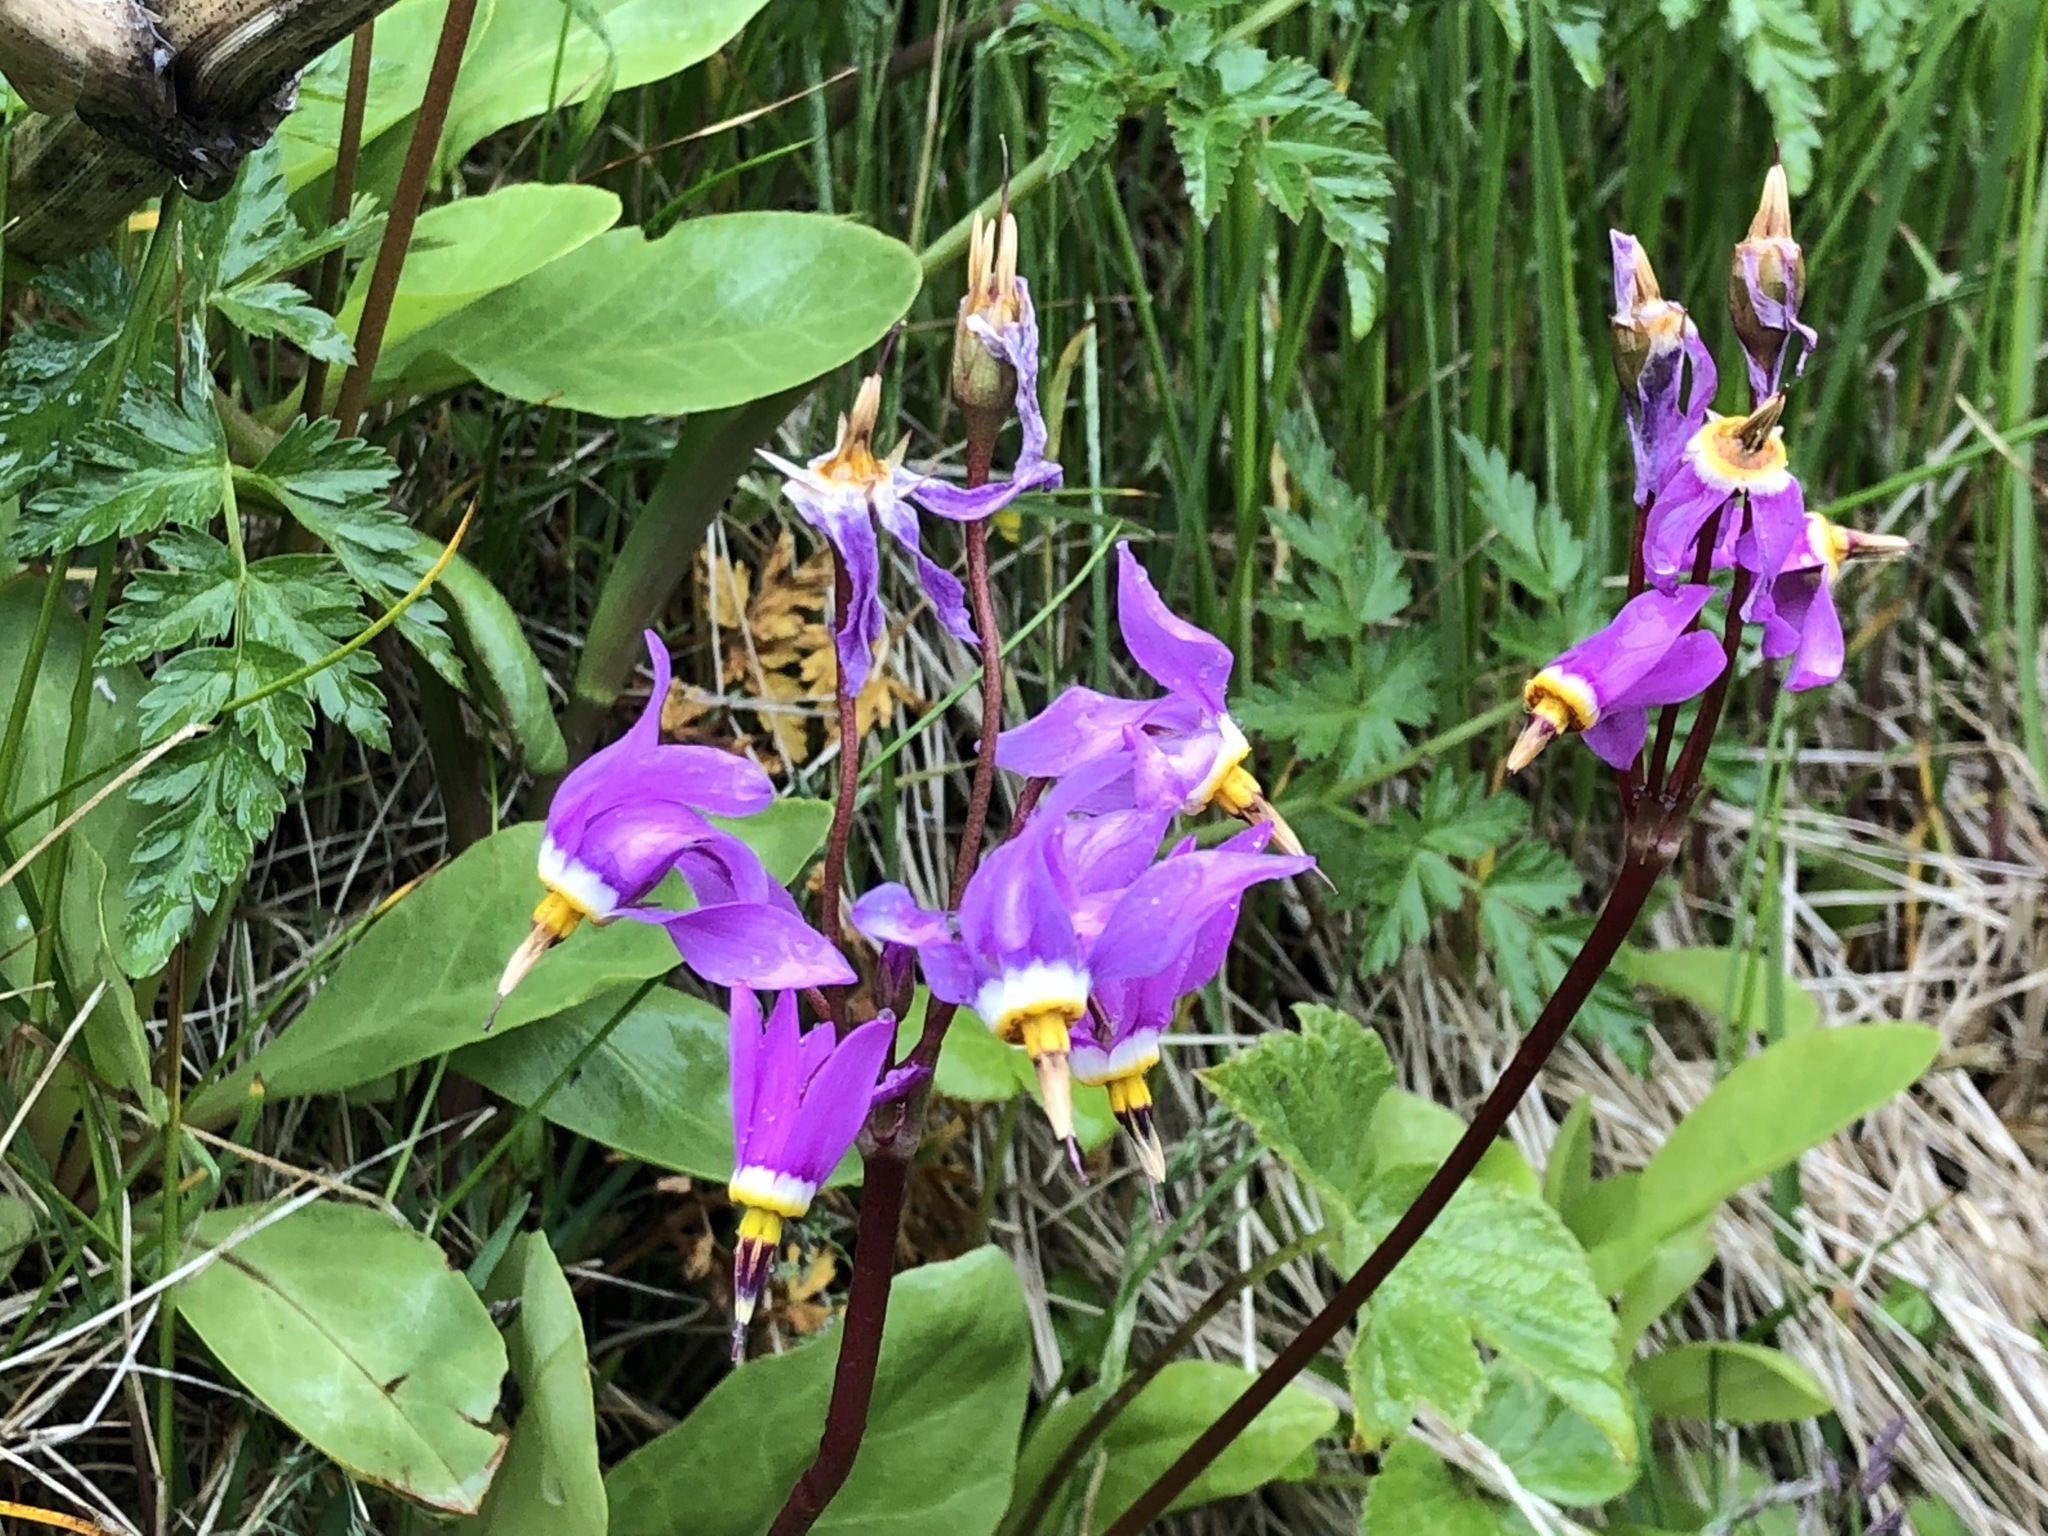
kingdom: Plantae
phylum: Tracheophyta
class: Magnoliopsida
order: Ericales
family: Primulaceae
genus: Dodecatheon
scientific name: Dodecatheon pulchellum
